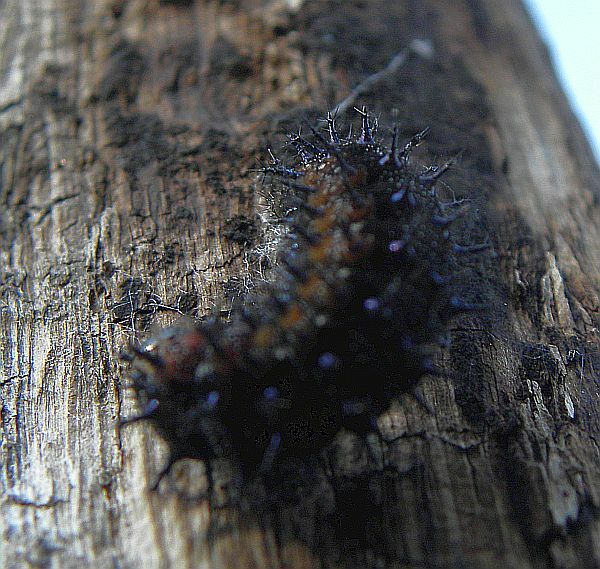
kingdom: Animalia
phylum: Arthropoda
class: Insecta
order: Lepidoptera
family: Nymphalidae
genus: Junonia
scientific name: Junonia coenia
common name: Common buckeye
